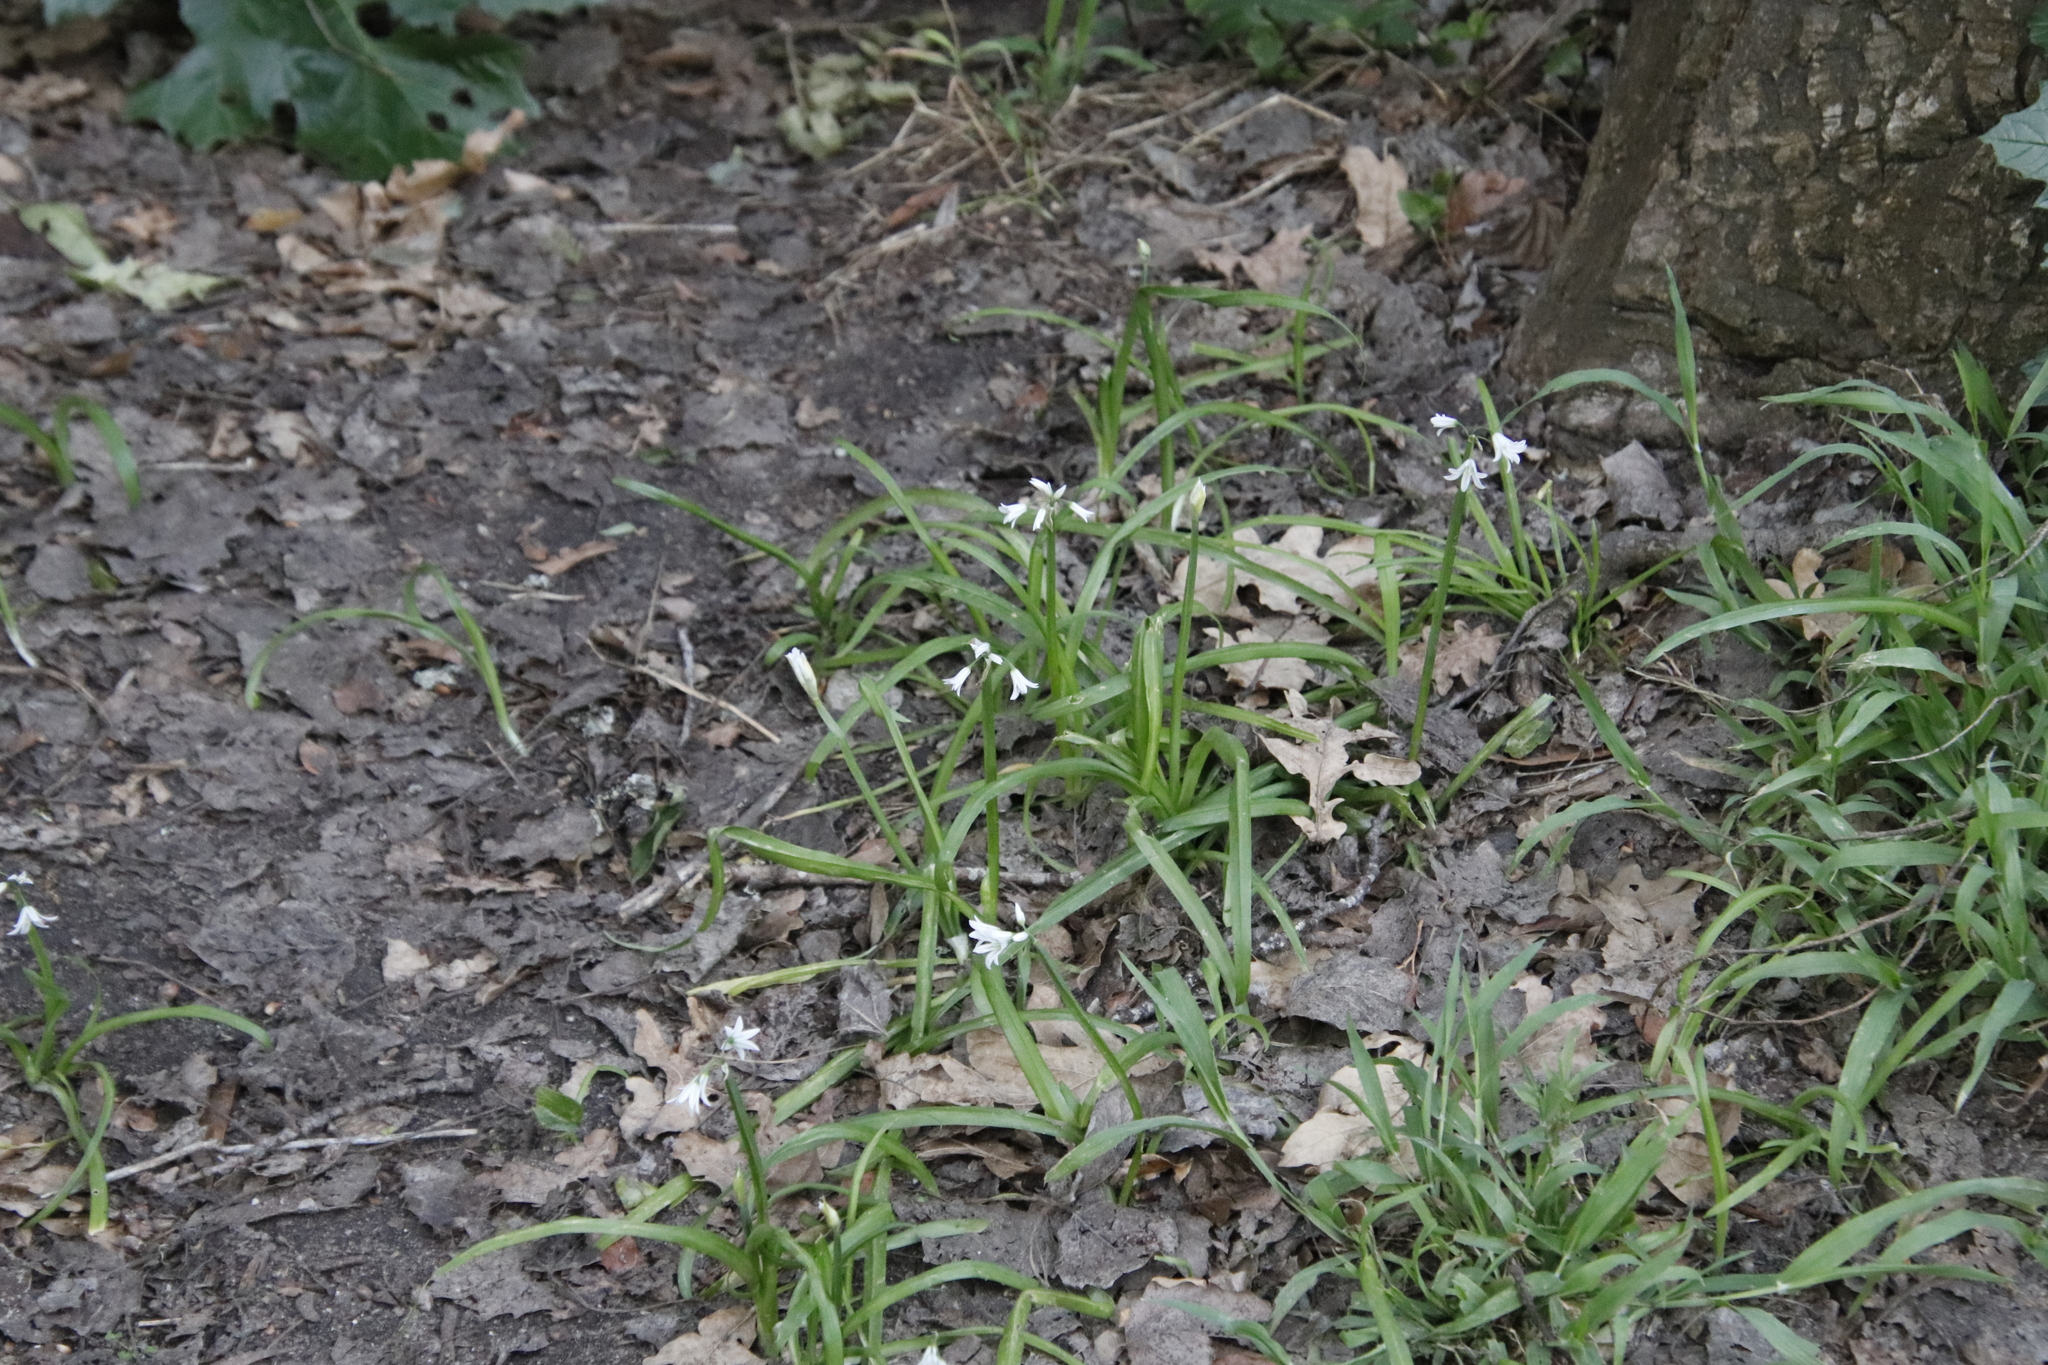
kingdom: Plantae
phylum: Tracheophyta
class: Liliopsida
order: Asparagales
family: Amaryllidaceae
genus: Allium
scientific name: Allium triquetrum
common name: Three-cornered garlic
